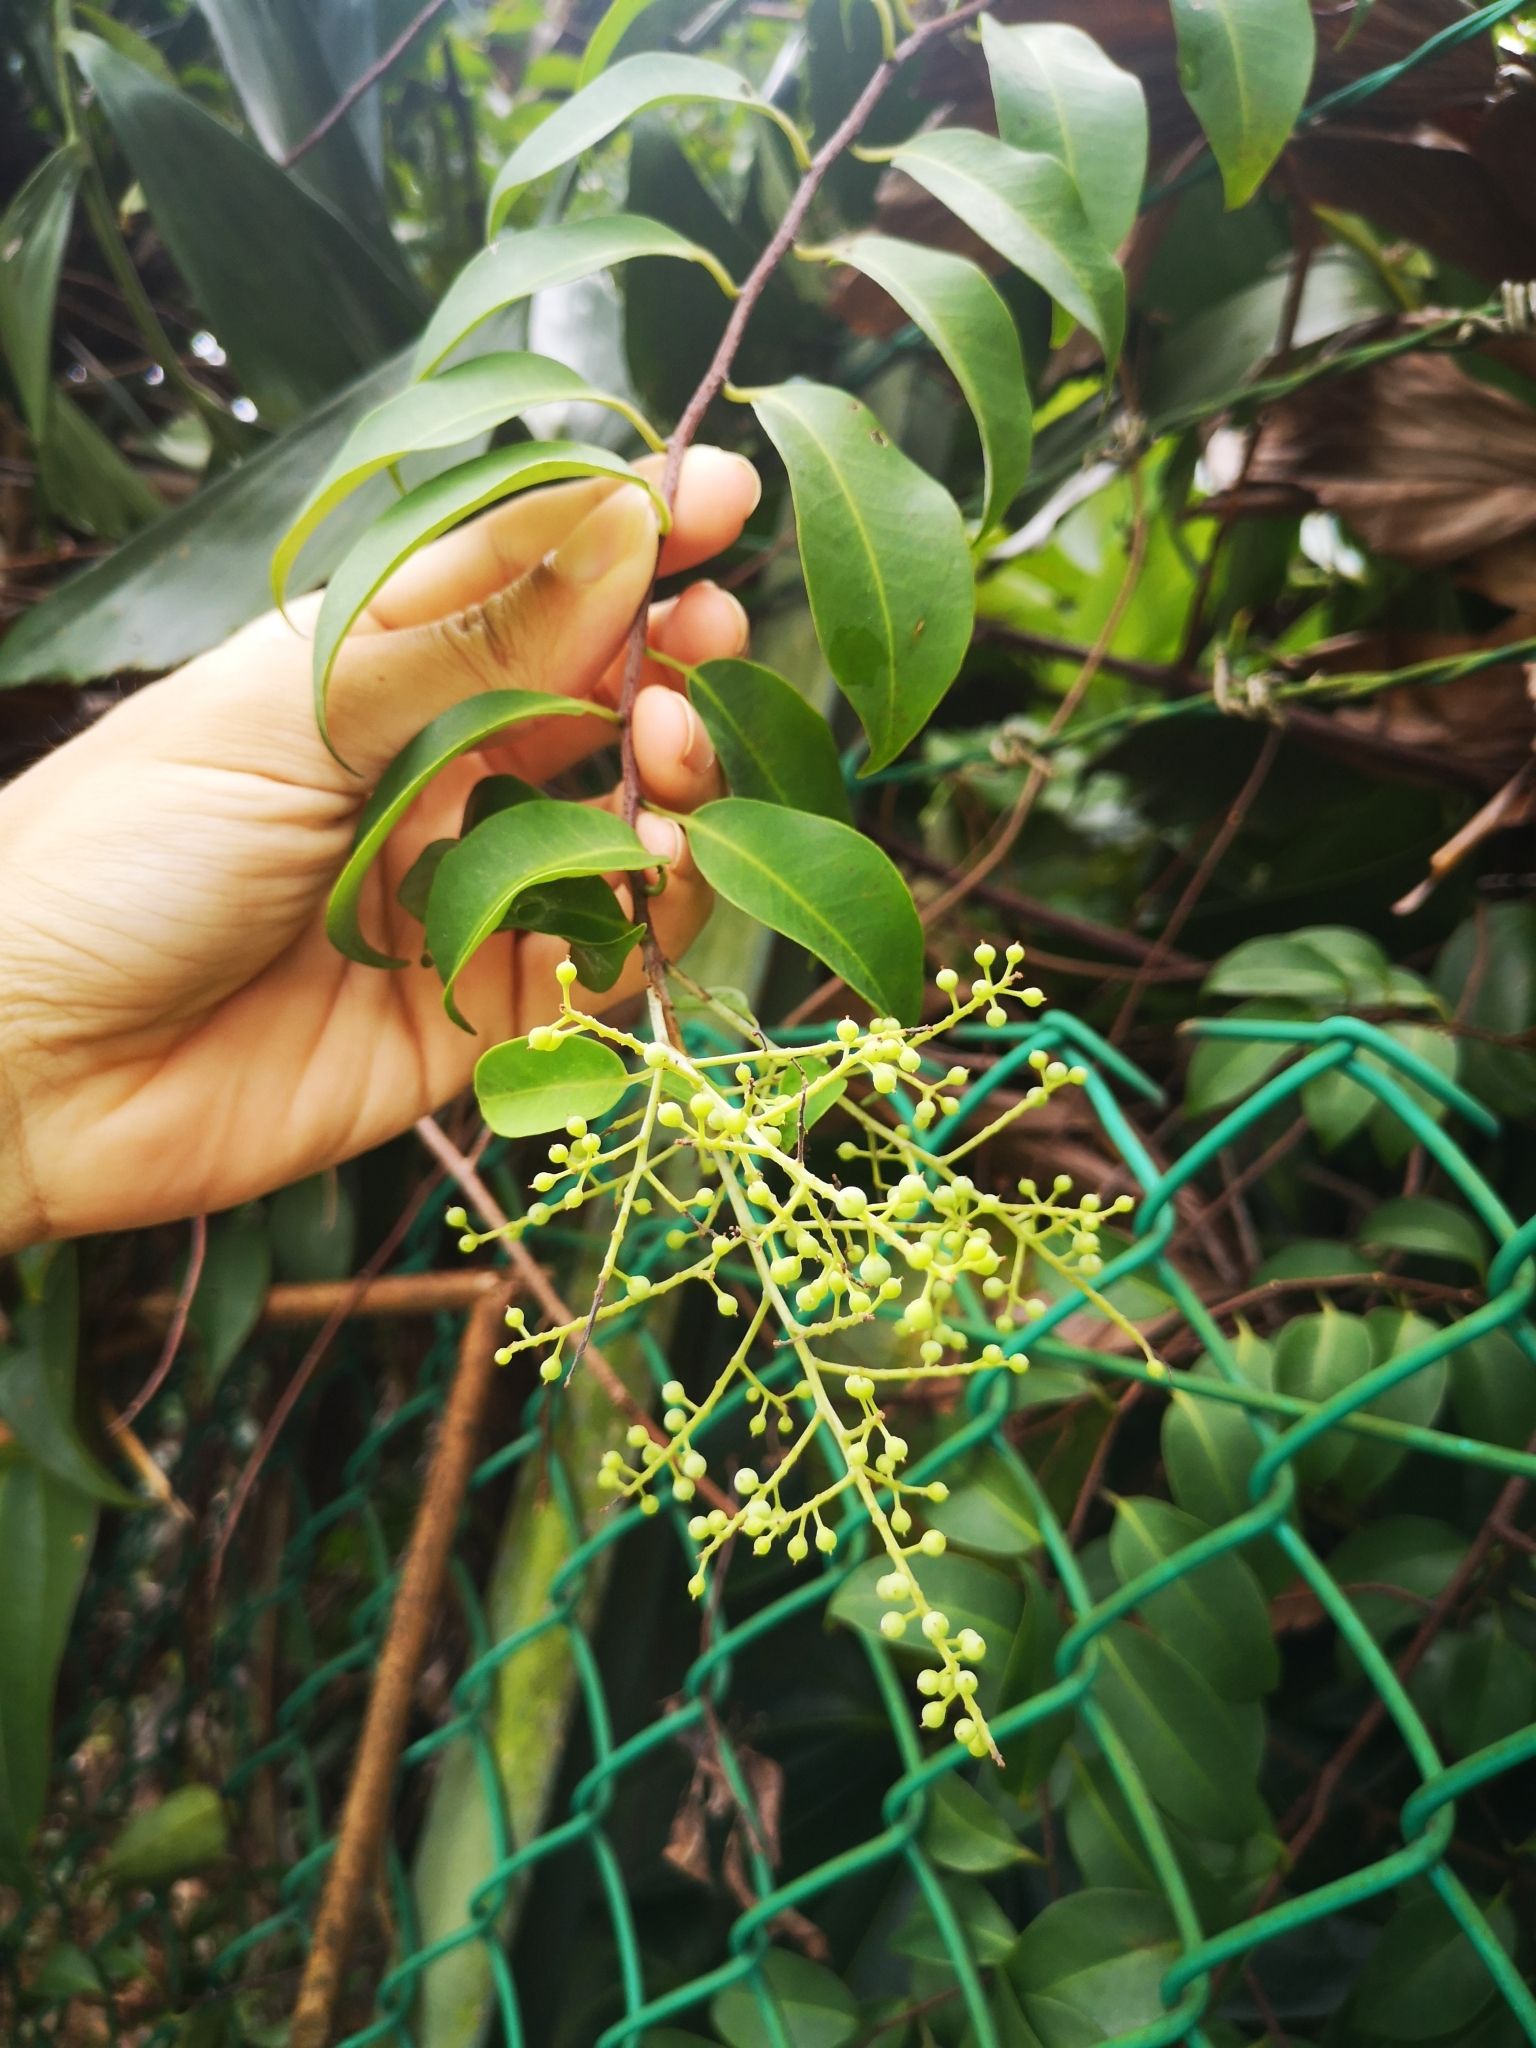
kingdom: Plantae
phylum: Tracheophyta
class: Magnoliopsida
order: Ericales
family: Primulaceae
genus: Embelia
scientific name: Embelia ribes
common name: Vidanga
